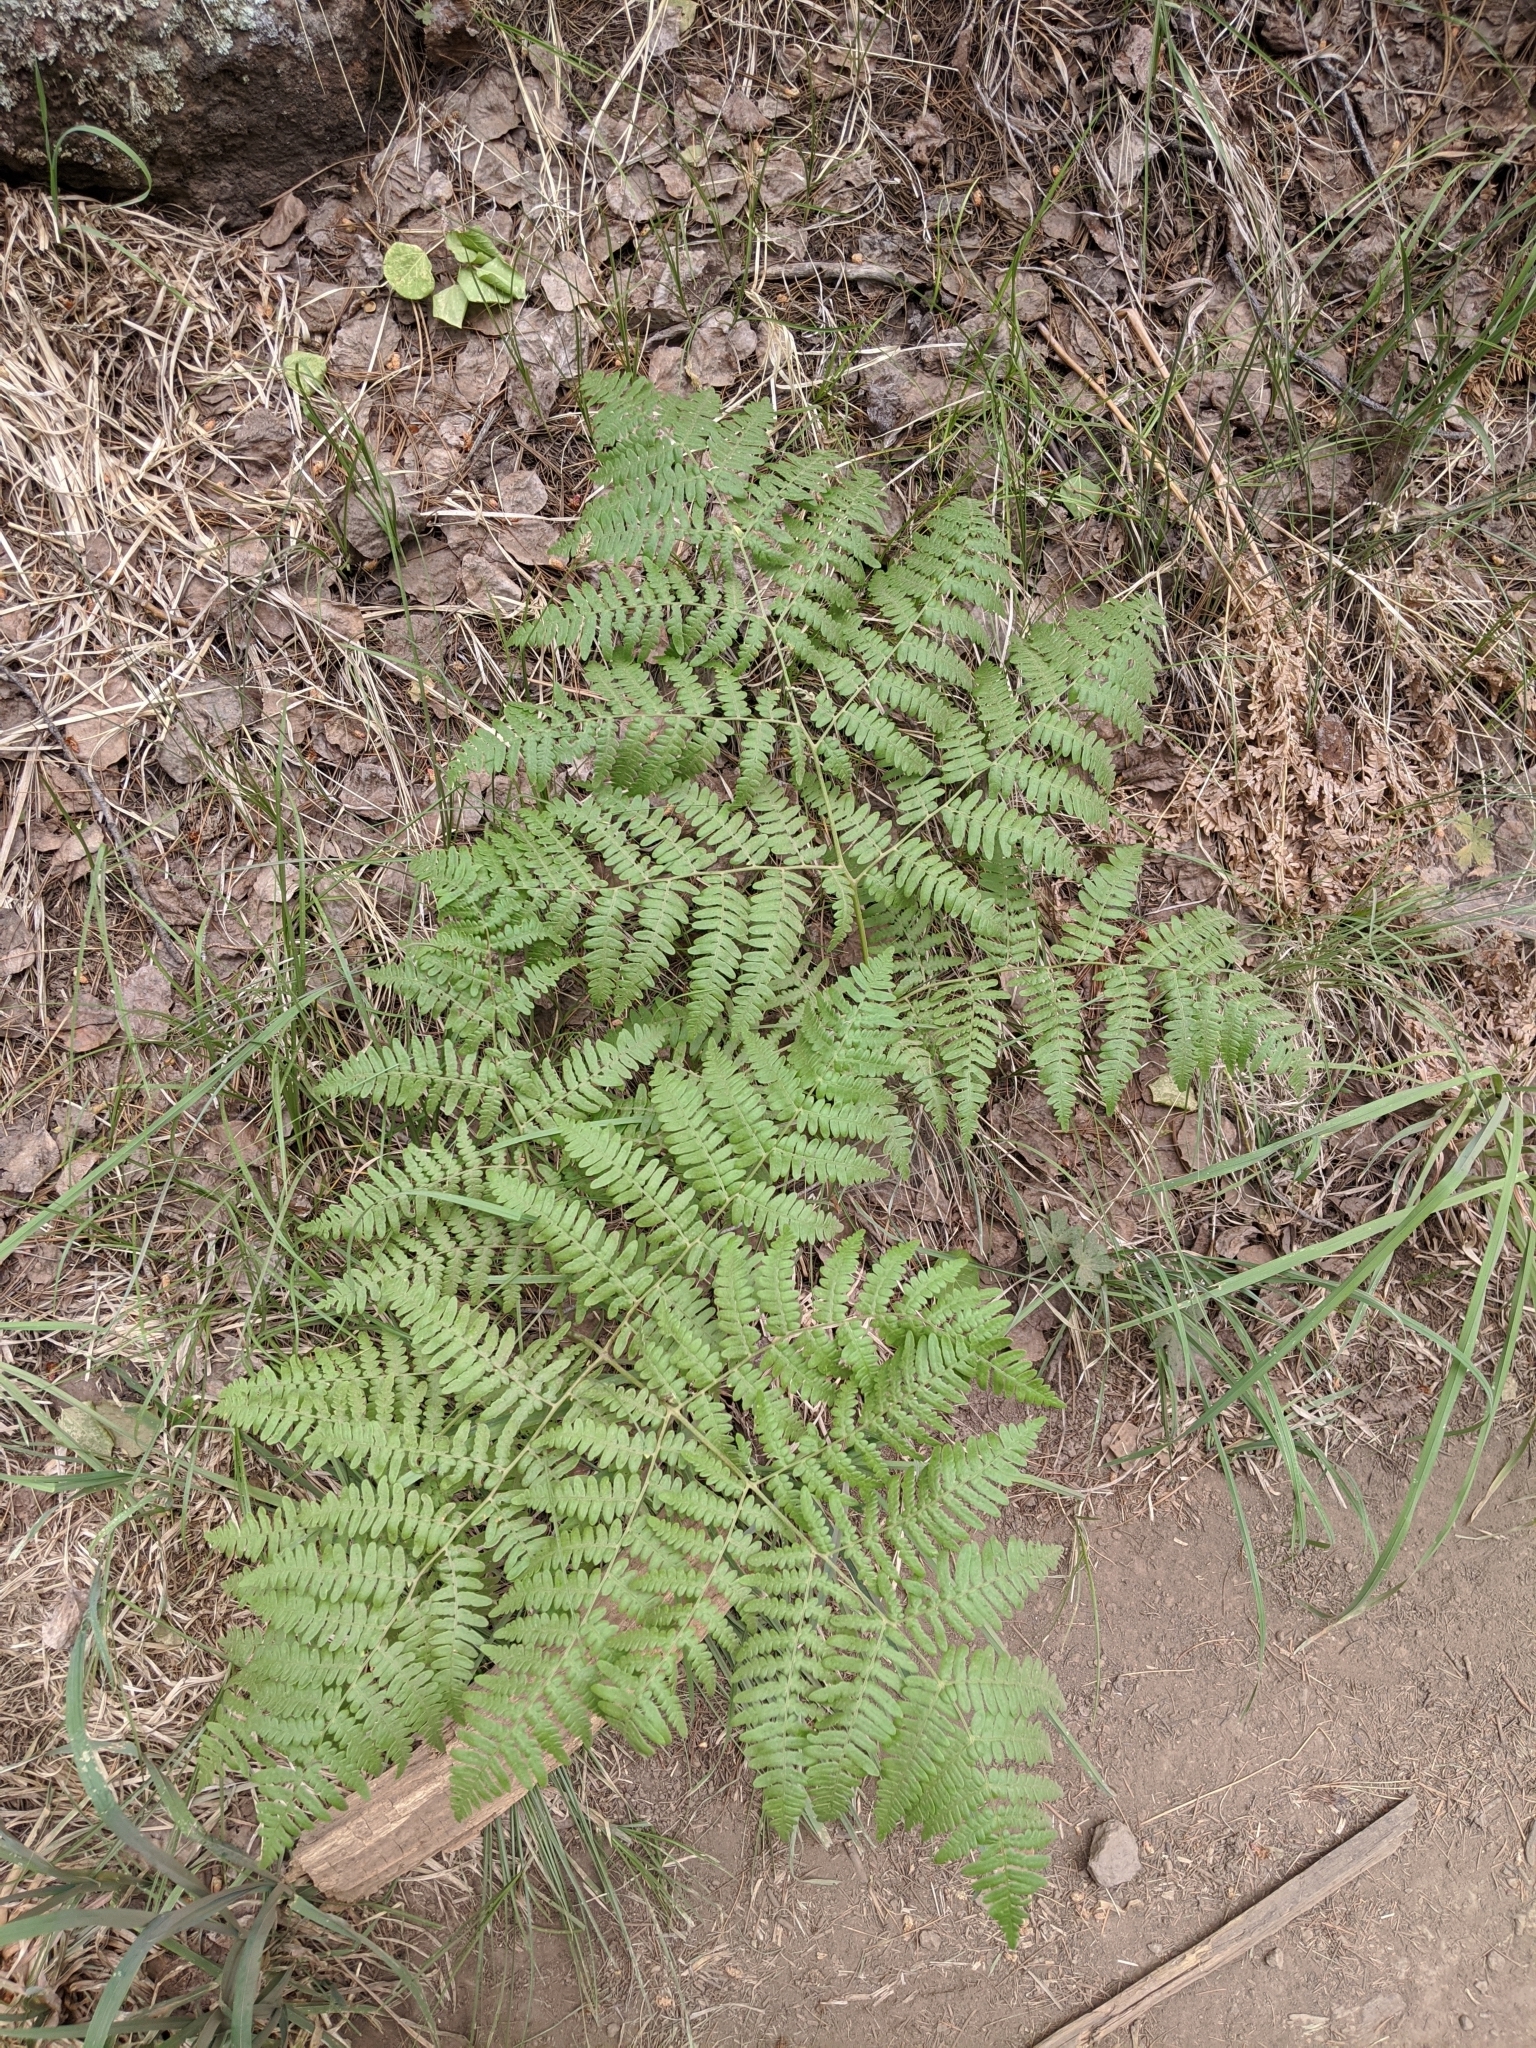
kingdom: Plantae
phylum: Tracheophyta
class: Polypodiopsida
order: Polypodiales
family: Dennstaedtiaceae
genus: Pteridium
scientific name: Pteridium aquilinum
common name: Bracken
